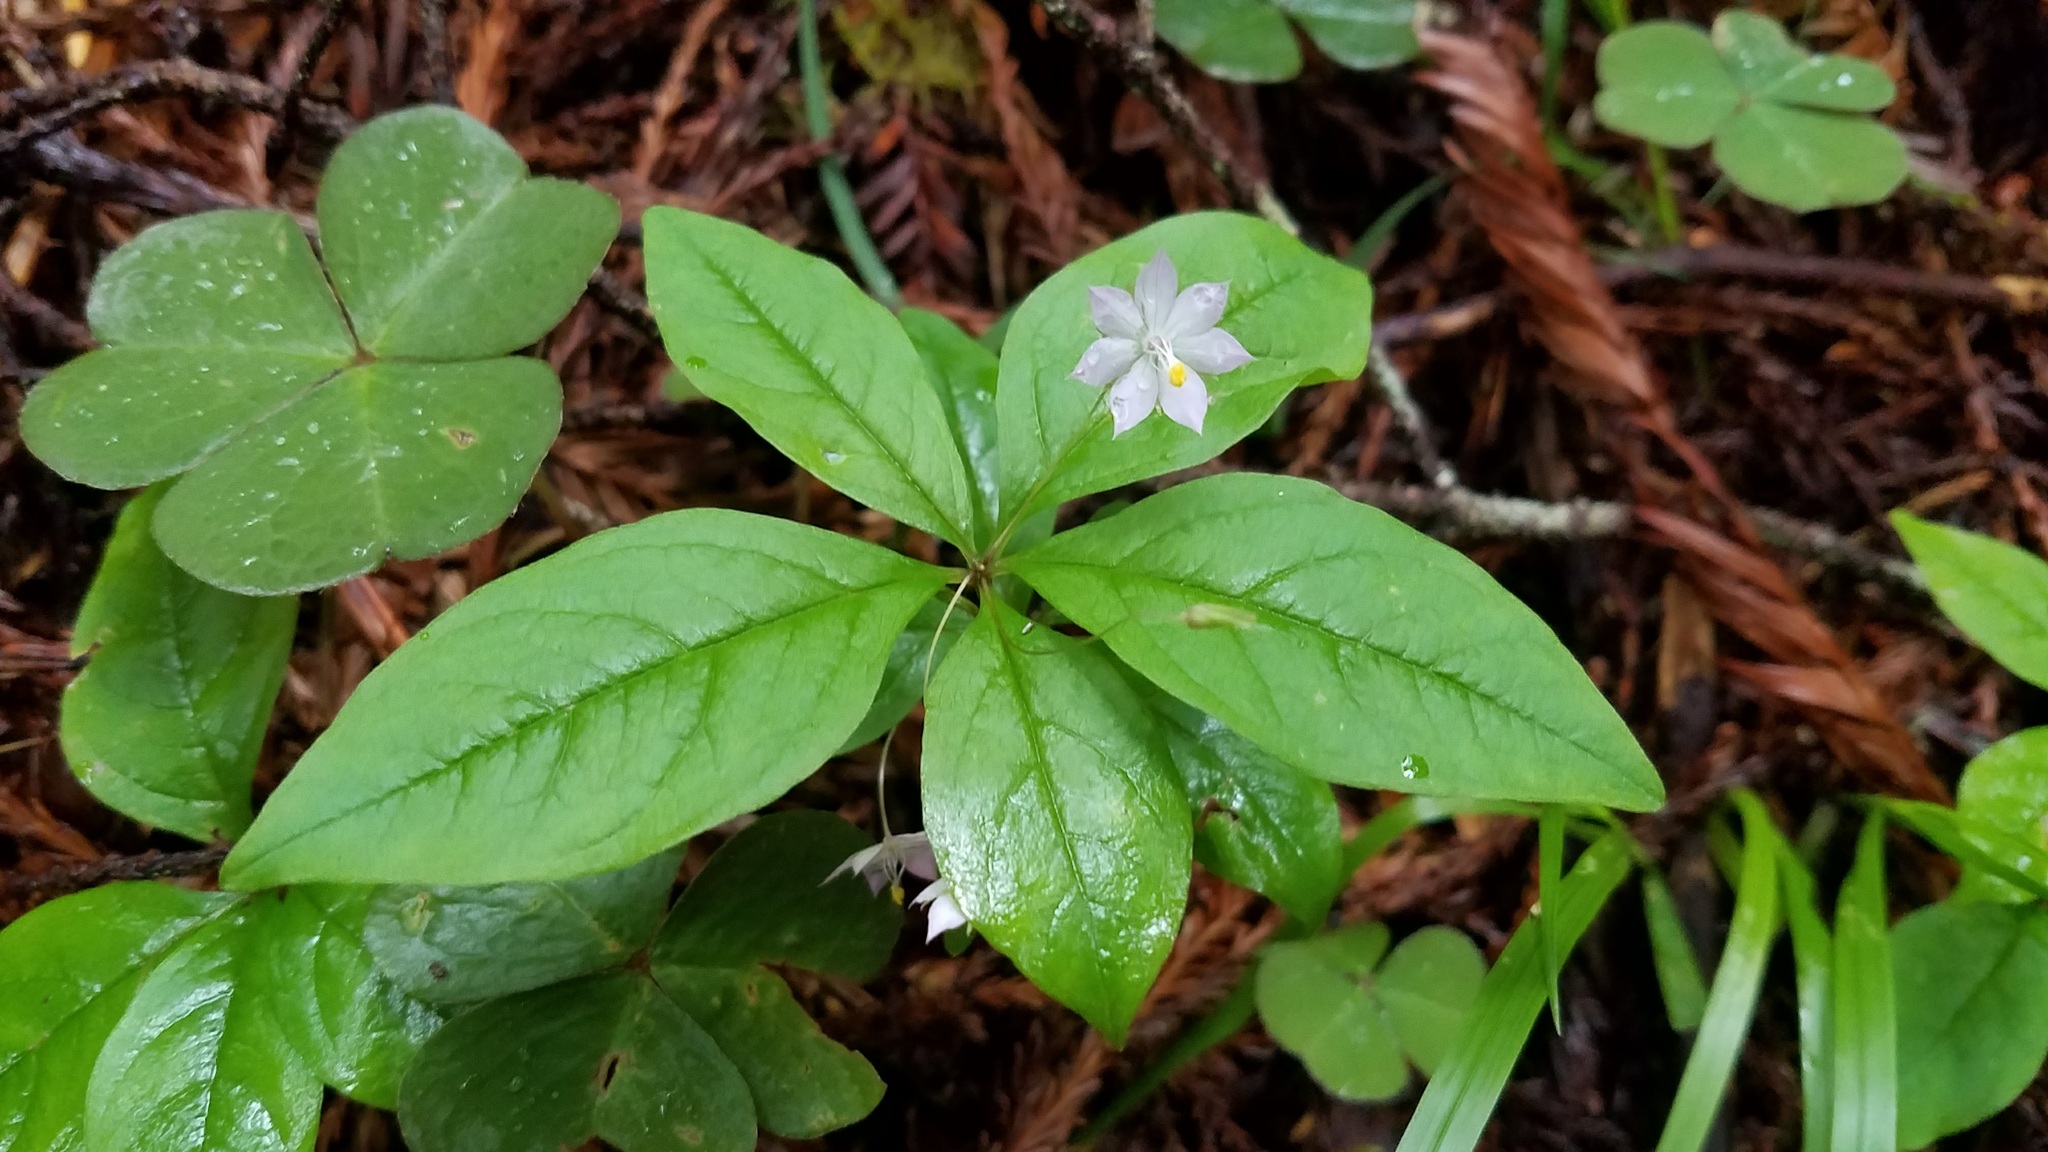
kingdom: Plantae
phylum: Tracheophyta
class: Magnoliopsida
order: Ericales
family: Primulaceae
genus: Lysimachia
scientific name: Lysimachia latifolia
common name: Pacific starflower
